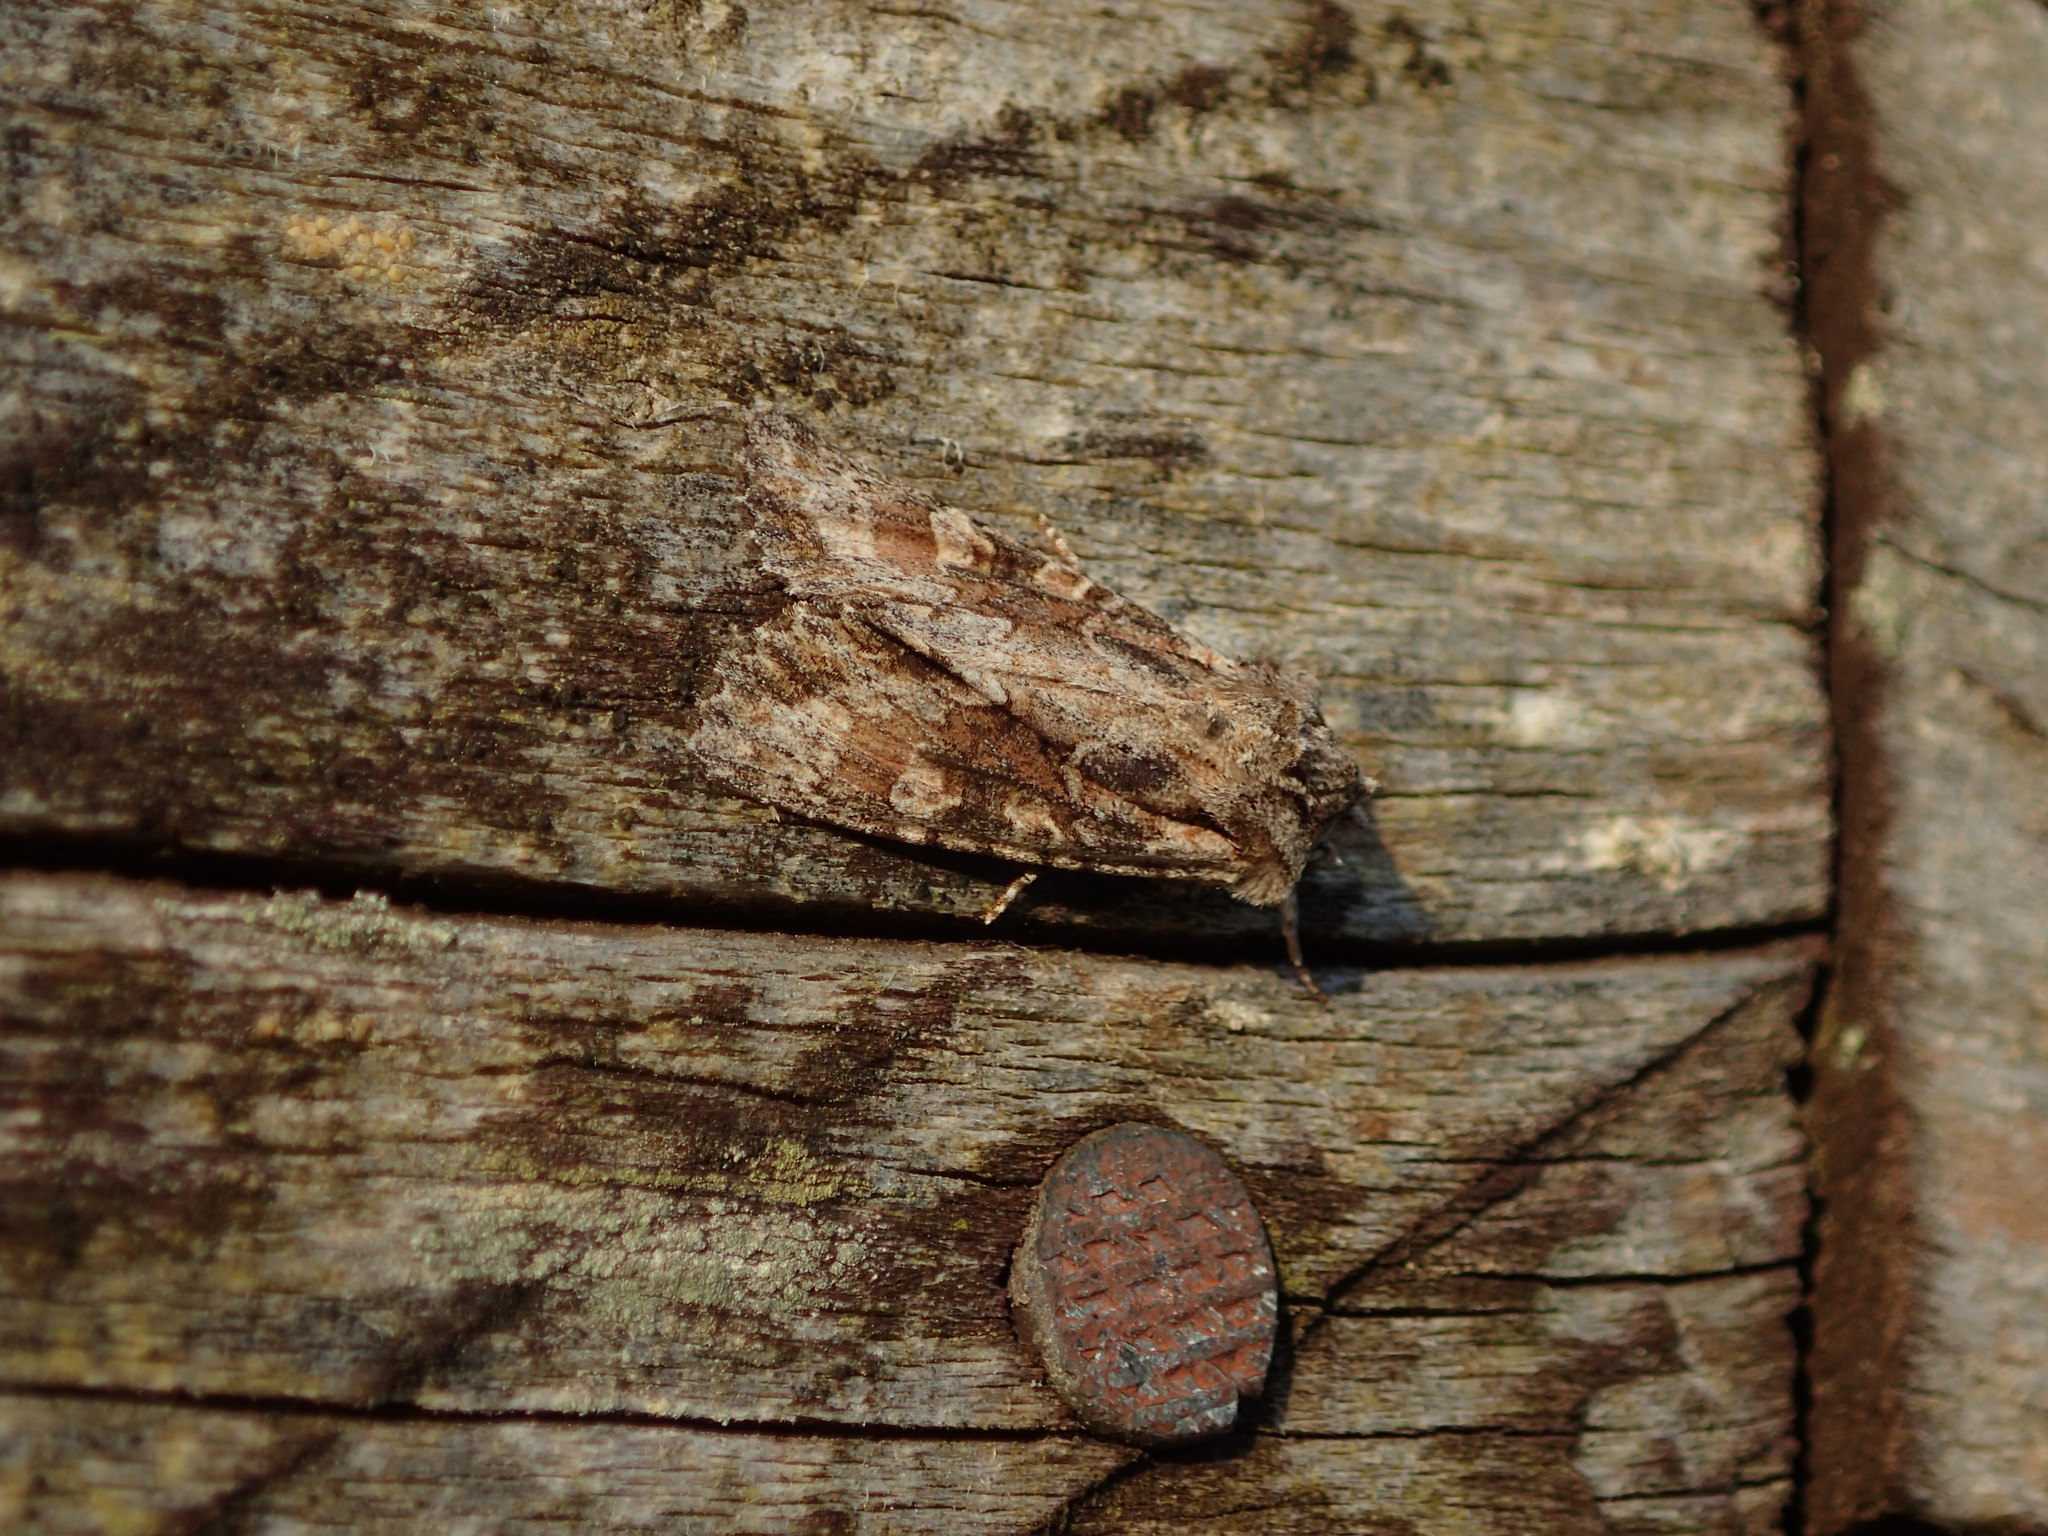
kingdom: Animalia
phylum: Arthropoda
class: Insecta
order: Lepidoptera
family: Noctuidae
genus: Ichneutica
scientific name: Ichneutica mutans
